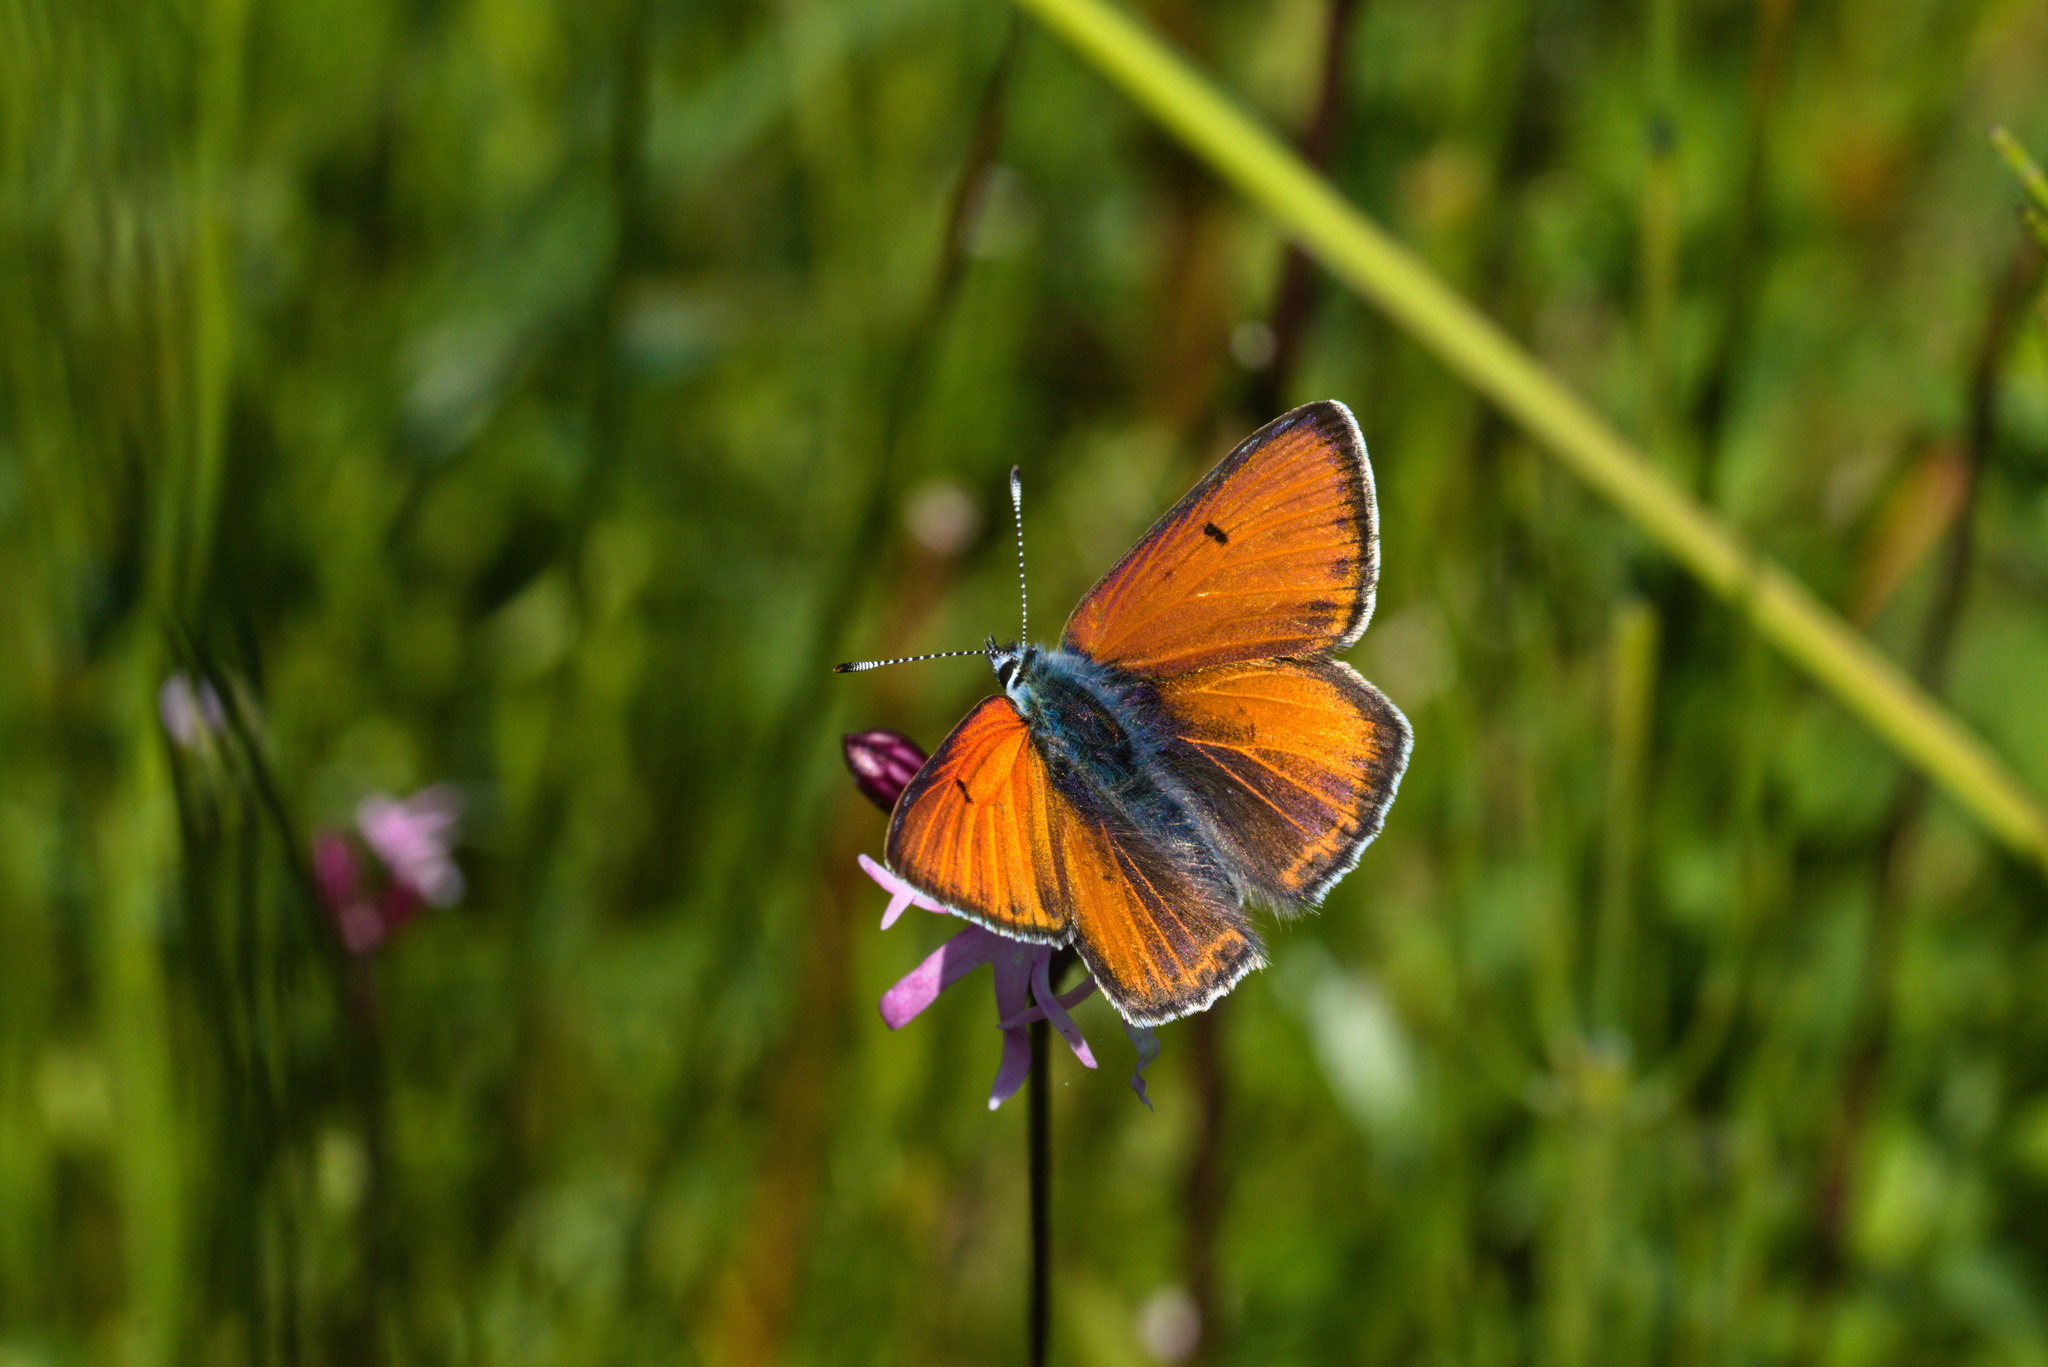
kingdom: Animalia
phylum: Arthropoda
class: Insecta
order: Lepidoptera
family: Lycaenidae
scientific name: Lycaenidae
